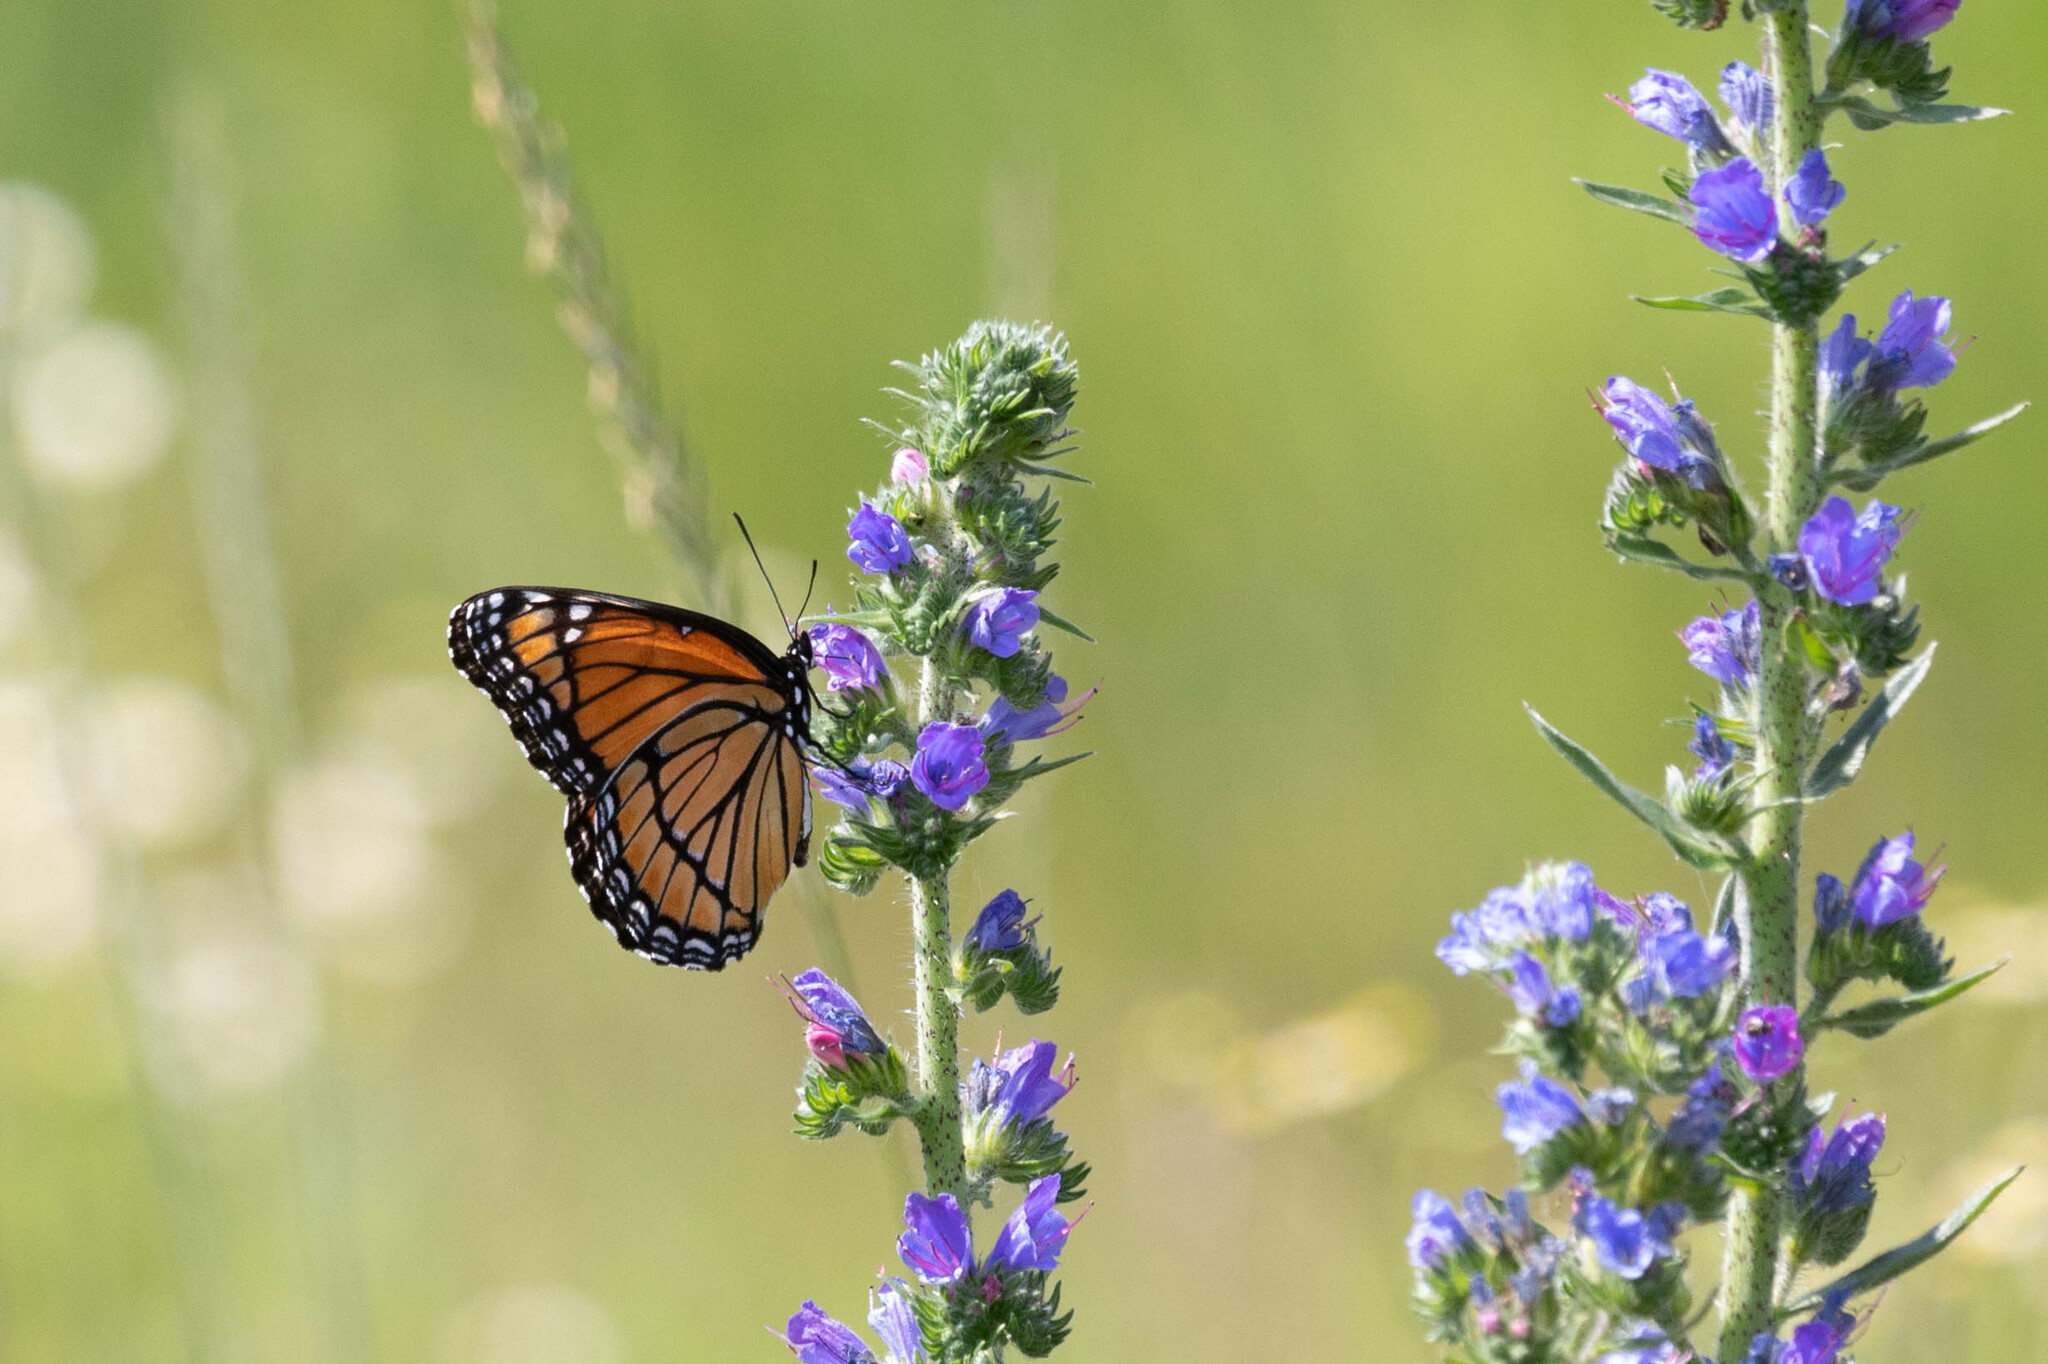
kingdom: Animalia
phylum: Arthropoda
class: Insecta
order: Lepidoptera
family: Nymphalidae
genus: Limenitis
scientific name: Limenitis archippus
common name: Viceroy
